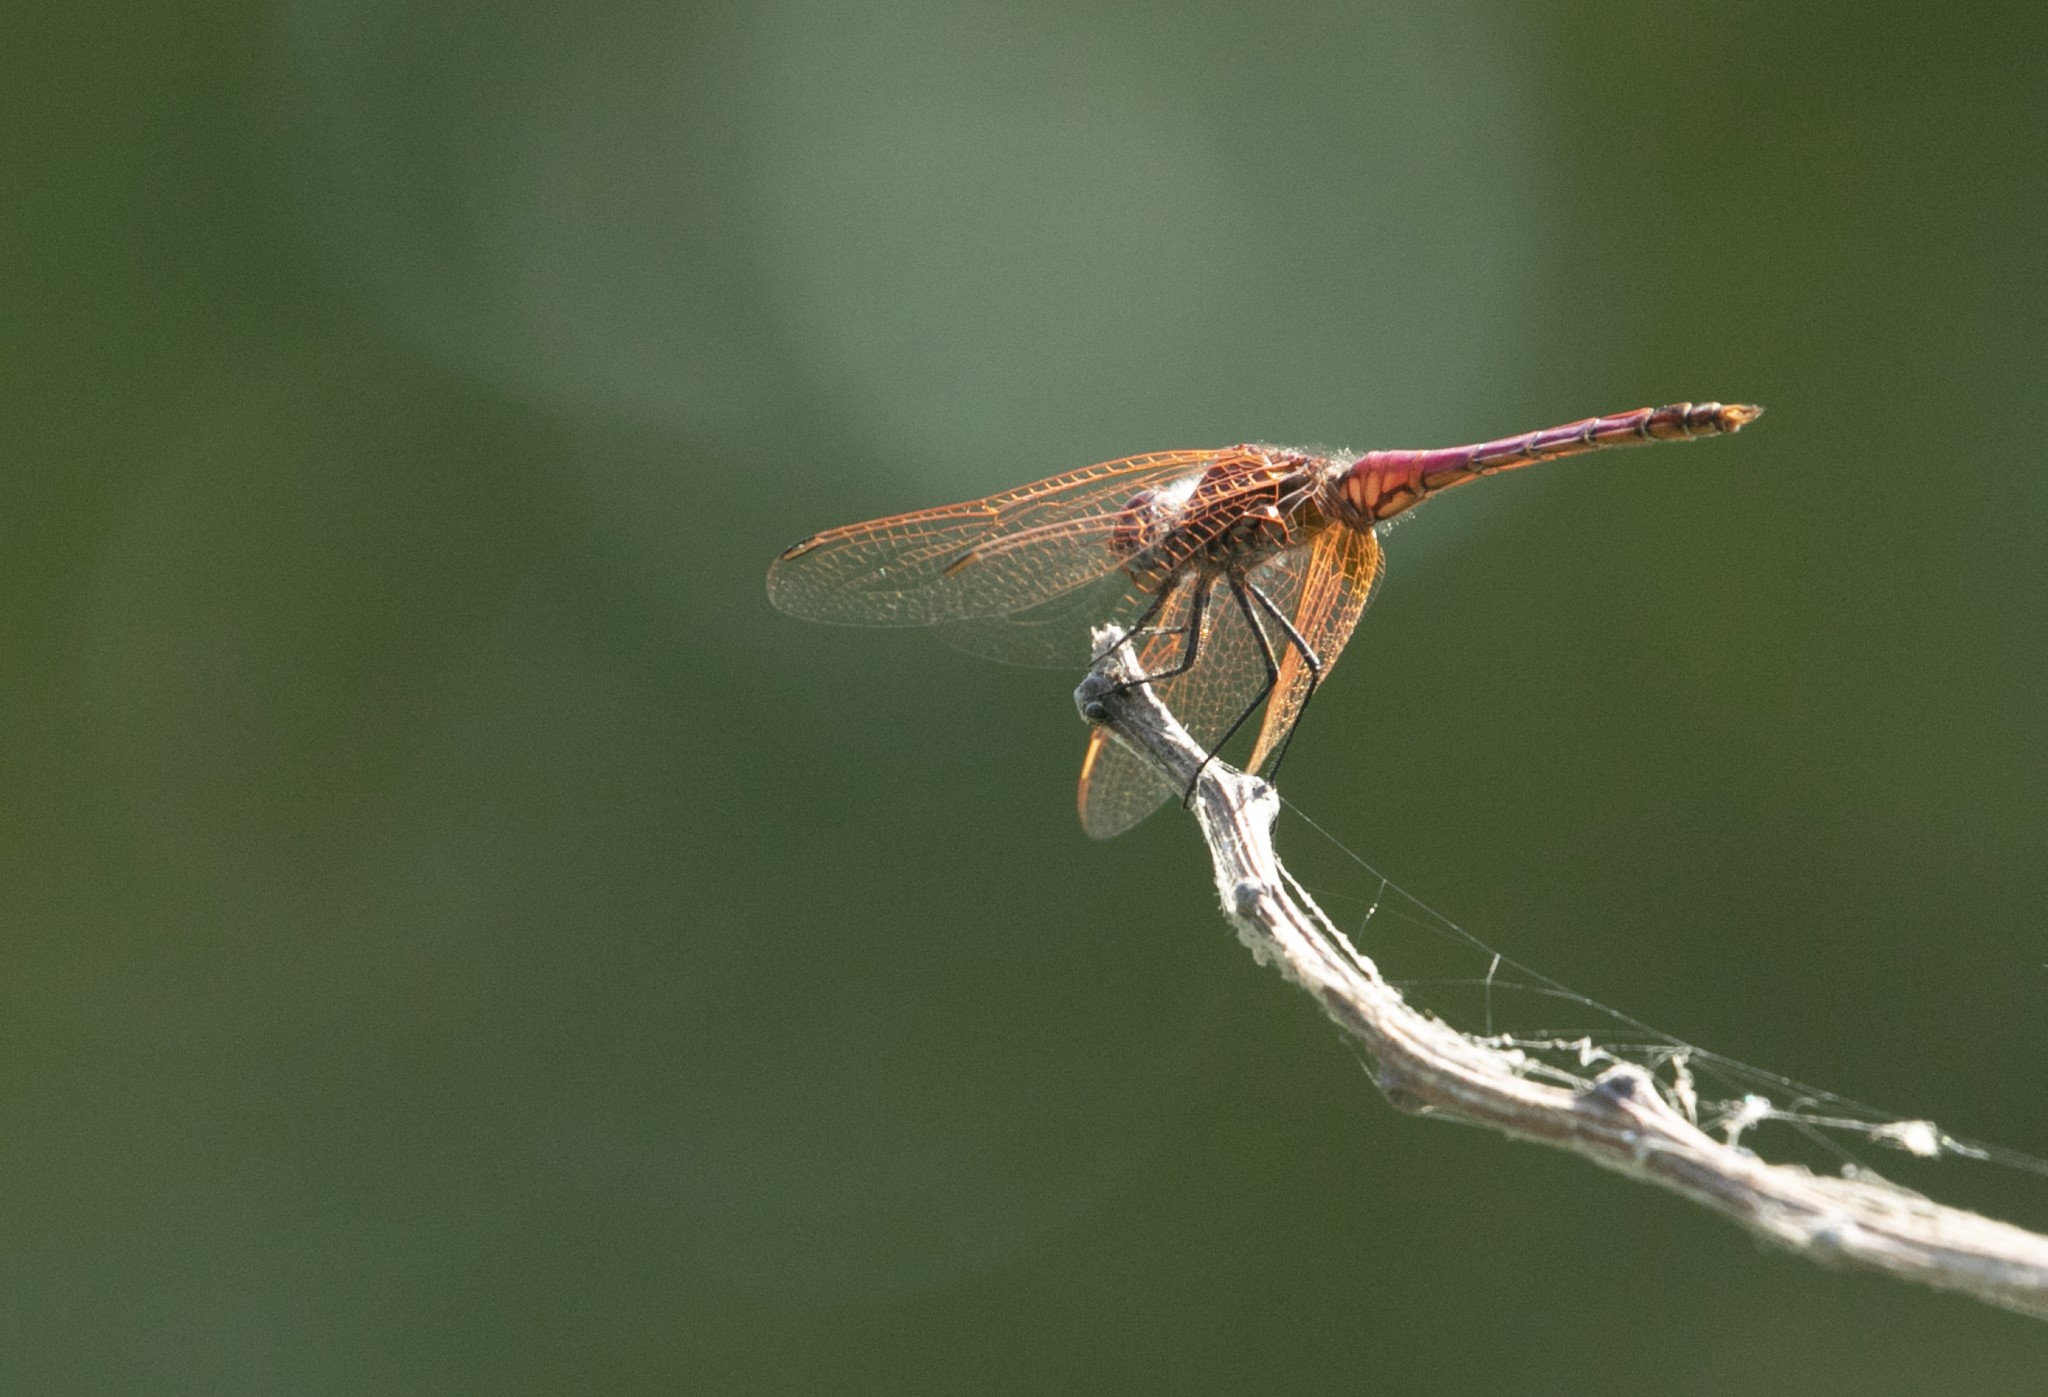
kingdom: Animalia
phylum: Arthropoda
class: Insecta
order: Odonata
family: Libellulidae
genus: Trithemis
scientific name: Trithemis annulata
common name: Violet dropwing
